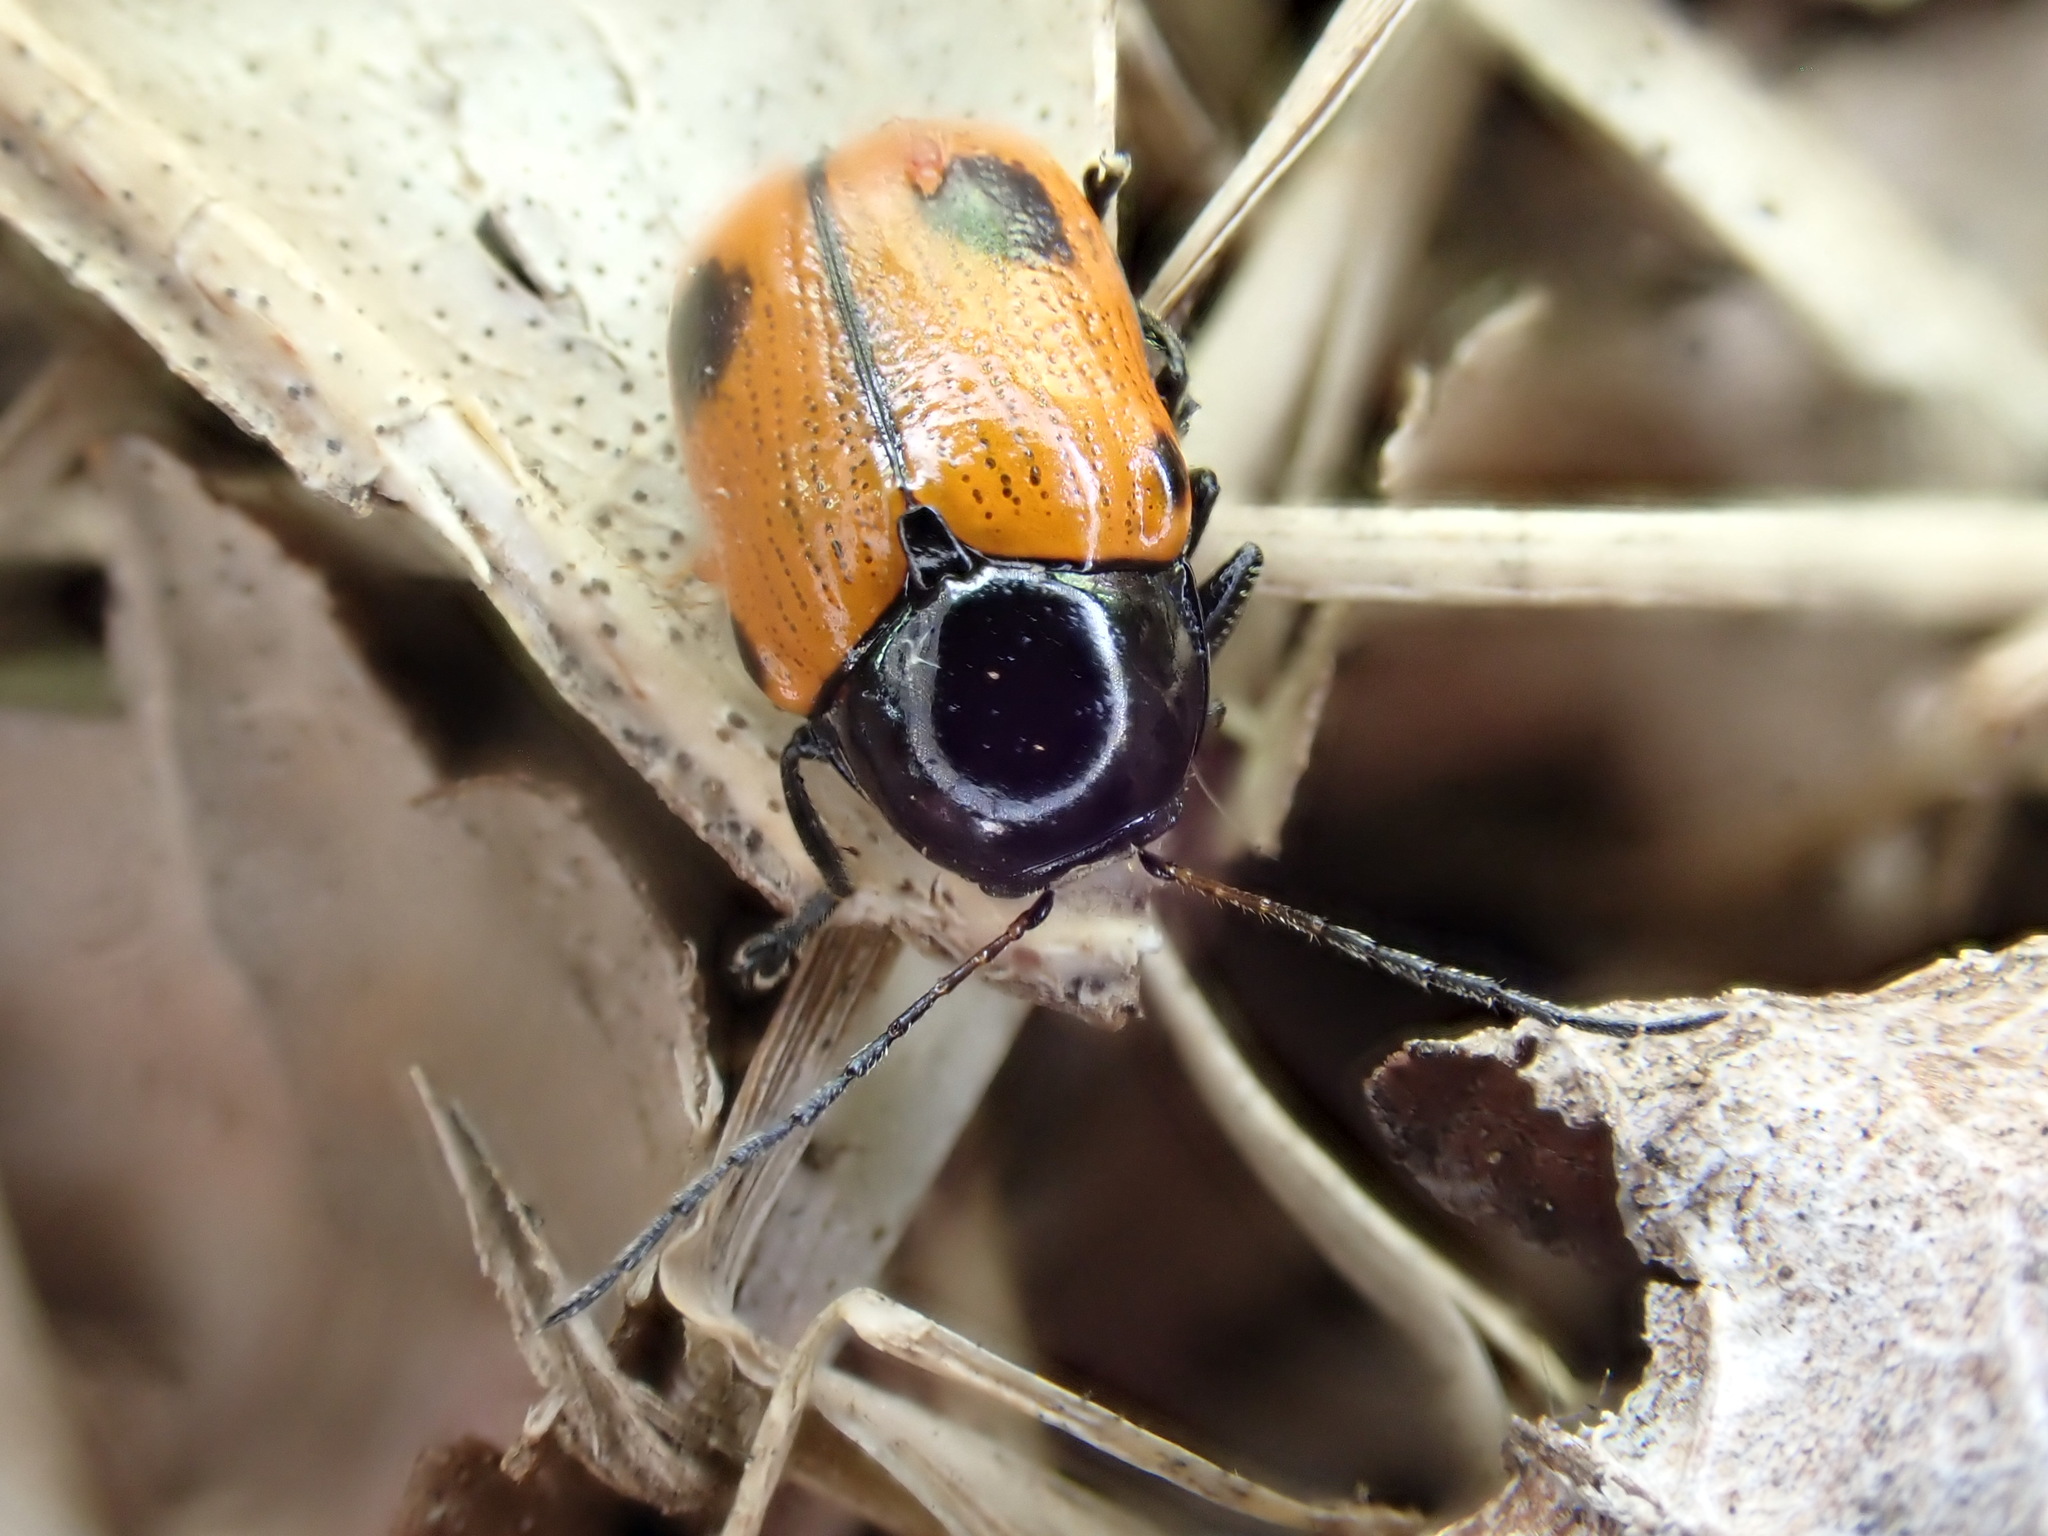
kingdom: Animalia
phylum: Arthropoda
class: Insecta
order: Coleoptera
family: Chrysomelidae
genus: Chiridopsis
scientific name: Chiridopsis bipunctata
